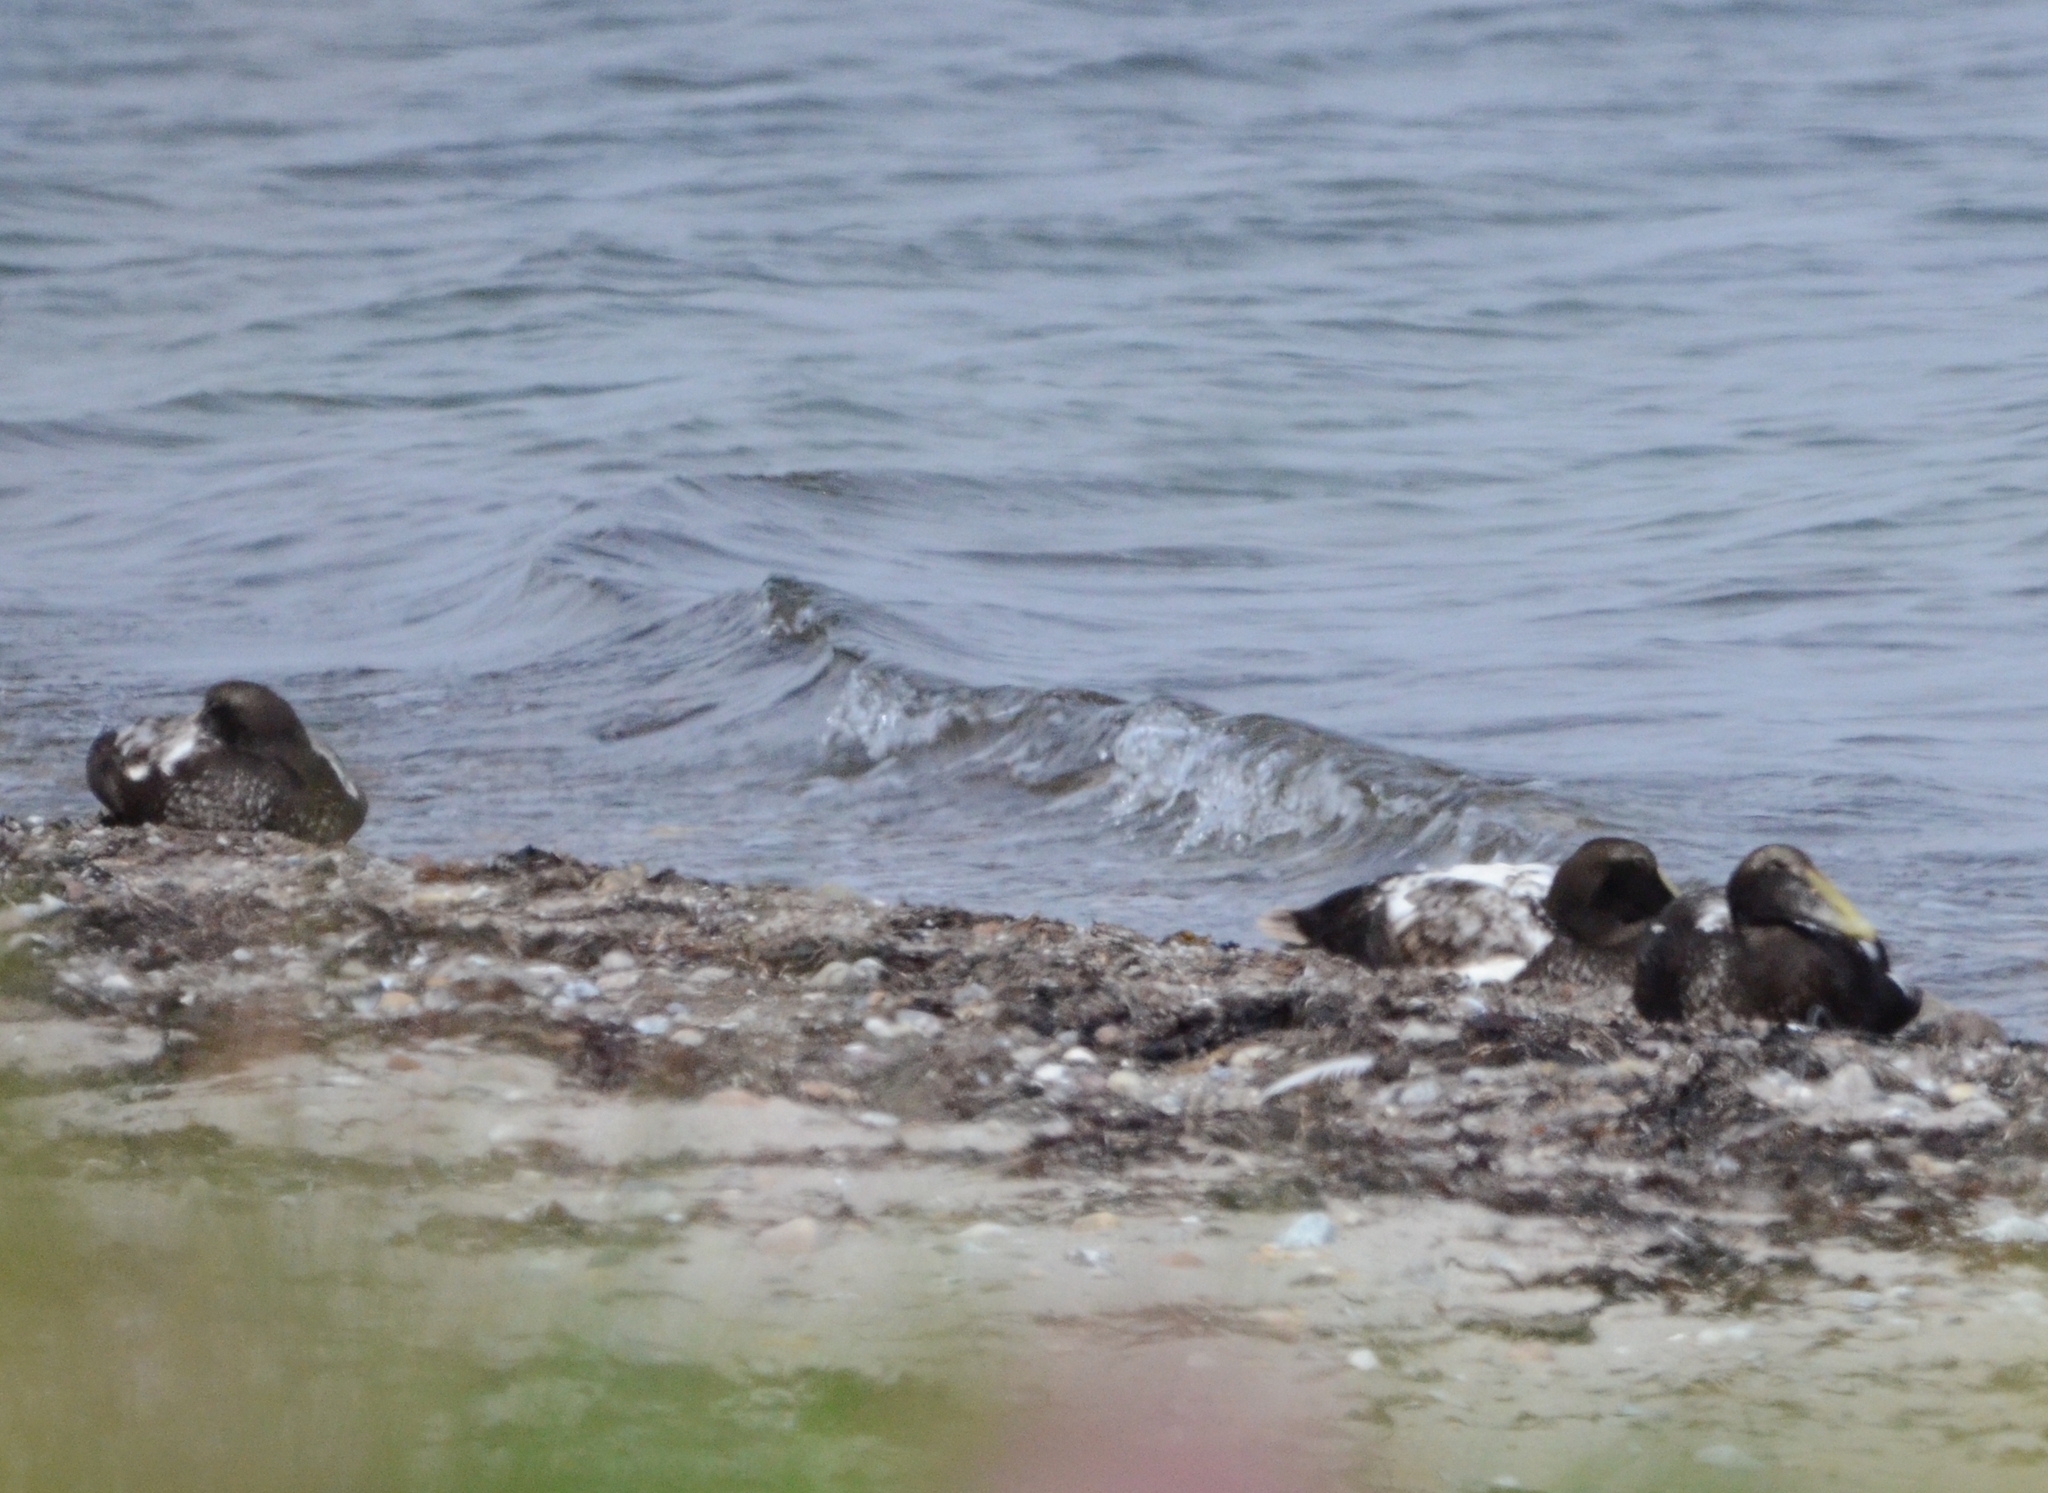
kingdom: Animalia
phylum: Chordata
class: Aves
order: Anseriformes
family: Anatidae
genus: Somateria
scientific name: Somateria mollissima
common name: Common eider
